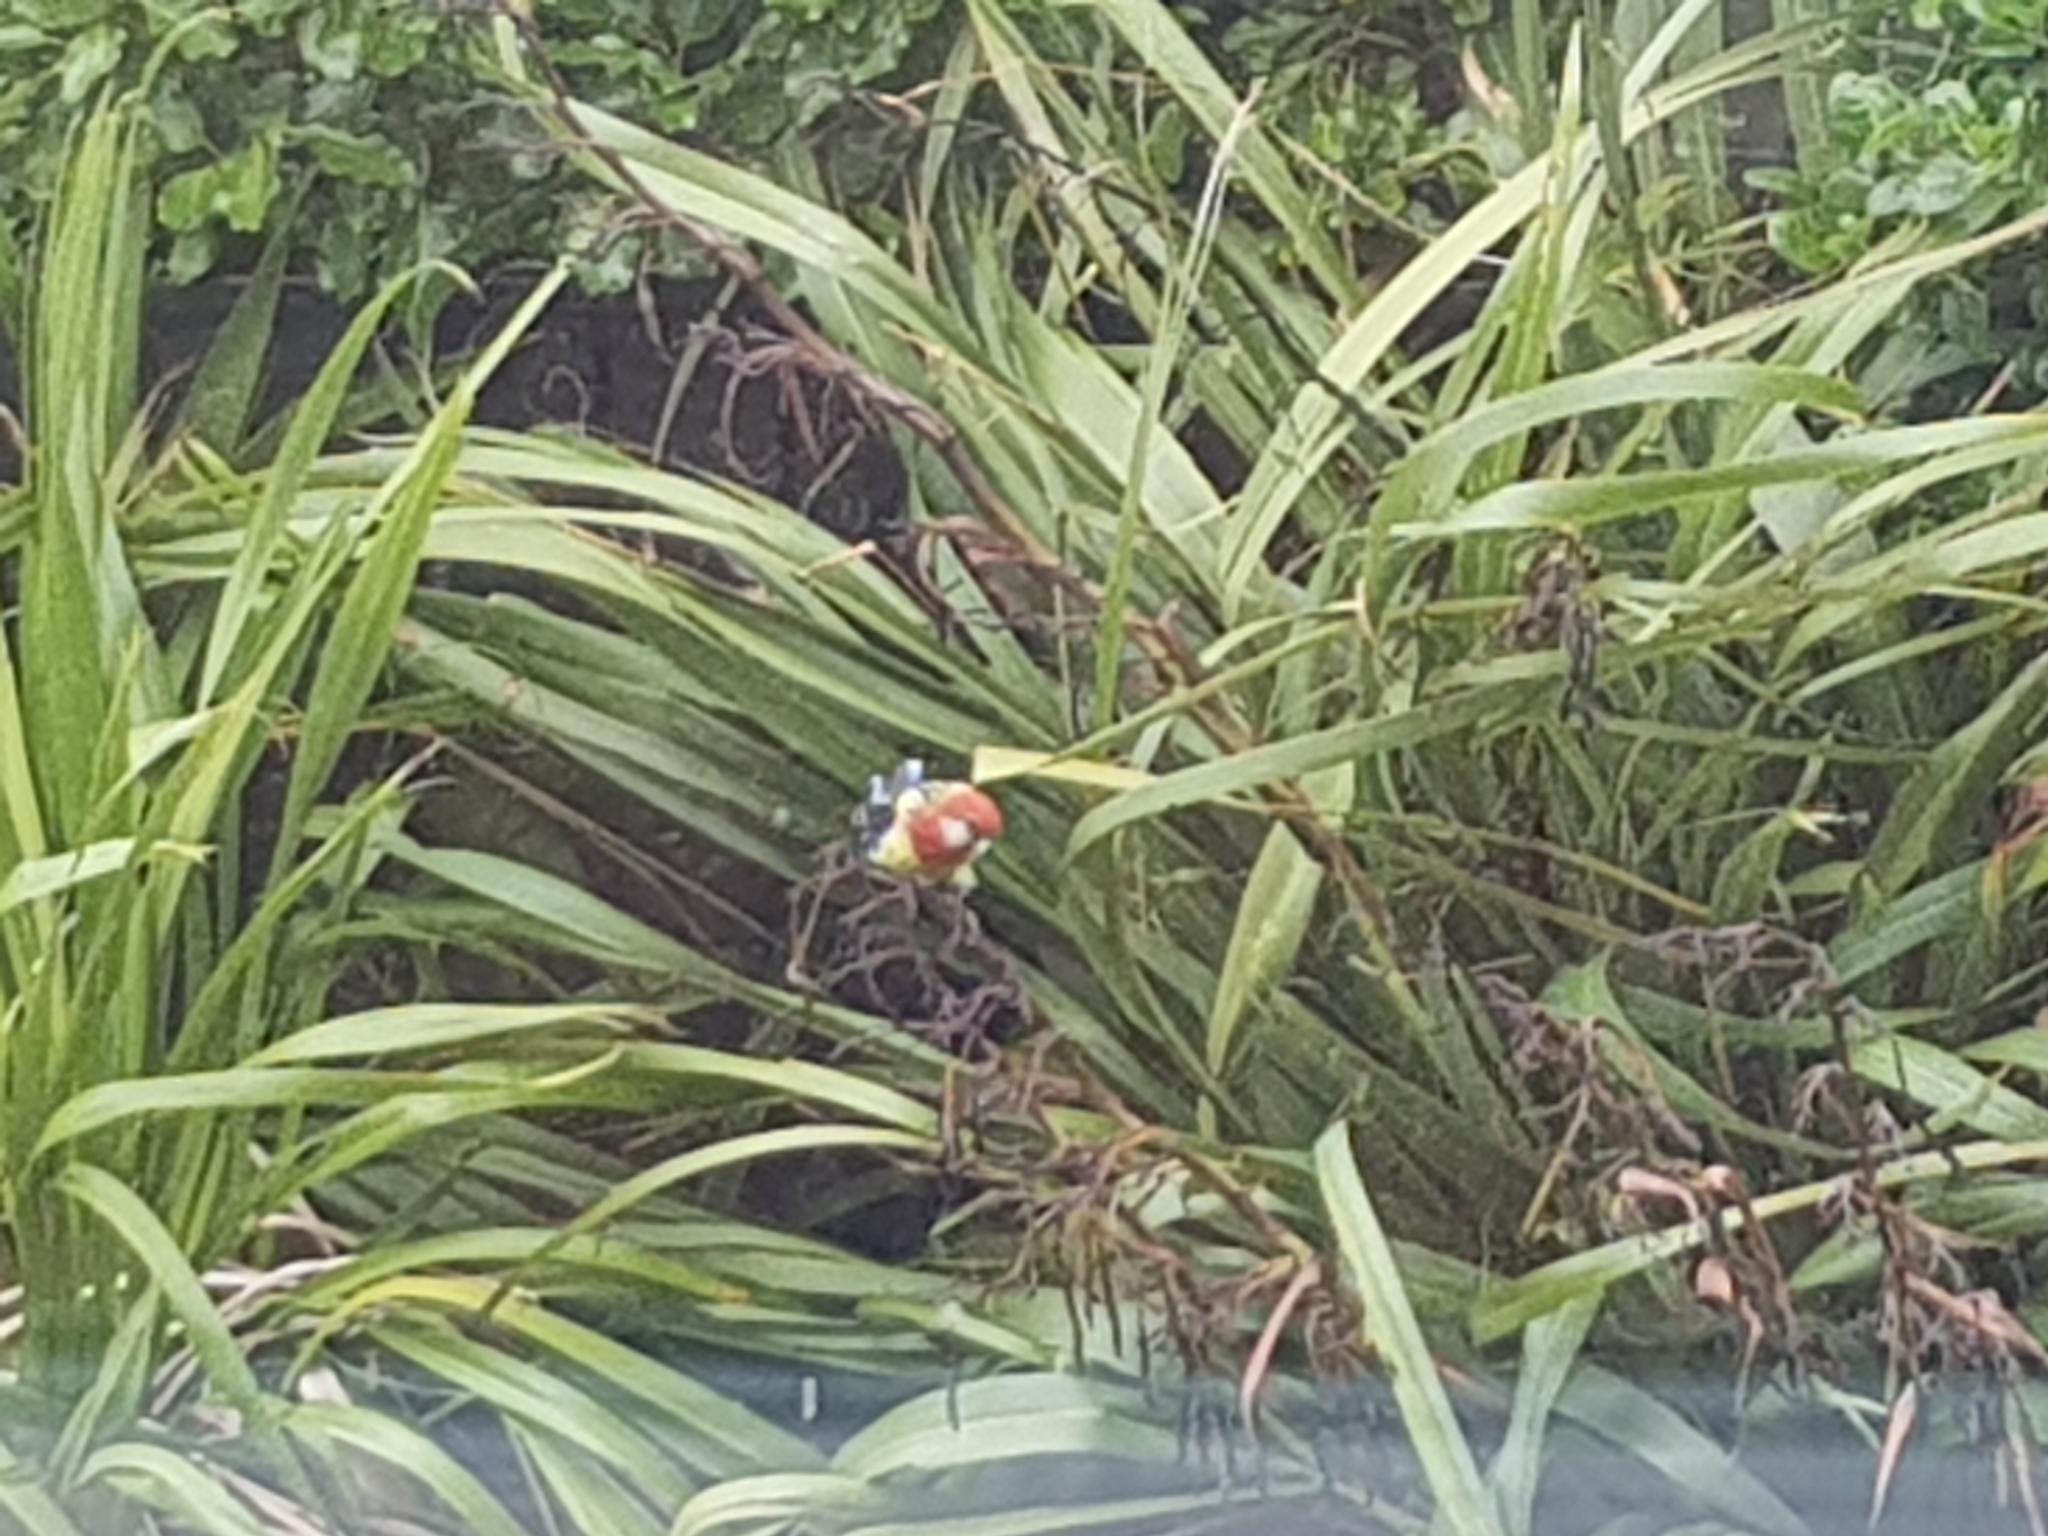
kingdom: Animalia
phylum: Chordata
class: Aves
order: Psittaciformes
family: Psittacidae
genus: Platycercus
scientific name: Platycercus eximius
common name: Eastern rosella
